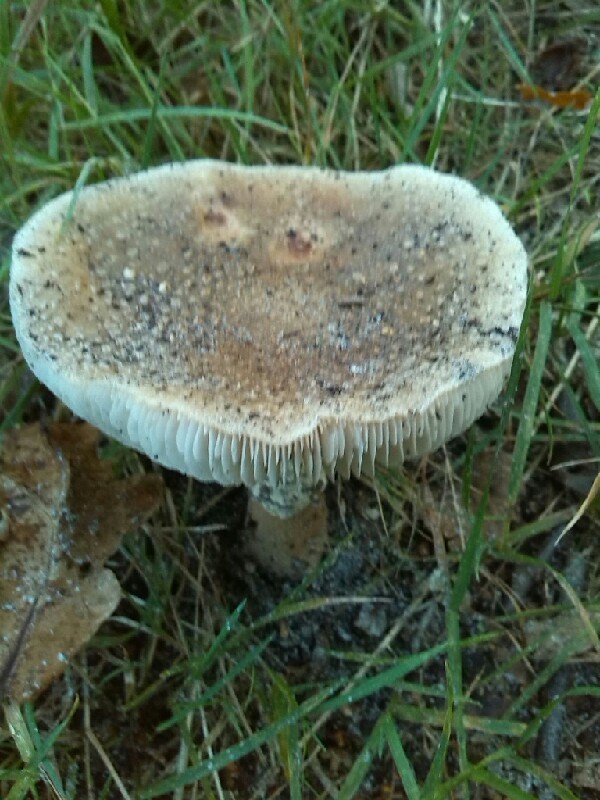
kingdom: Fungi
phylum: Basidiomycota
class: Agaricomycetes
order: Agaricales
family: Amanitaceae
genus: Amanita
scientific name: Amanita pantherina
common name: Panthercap
